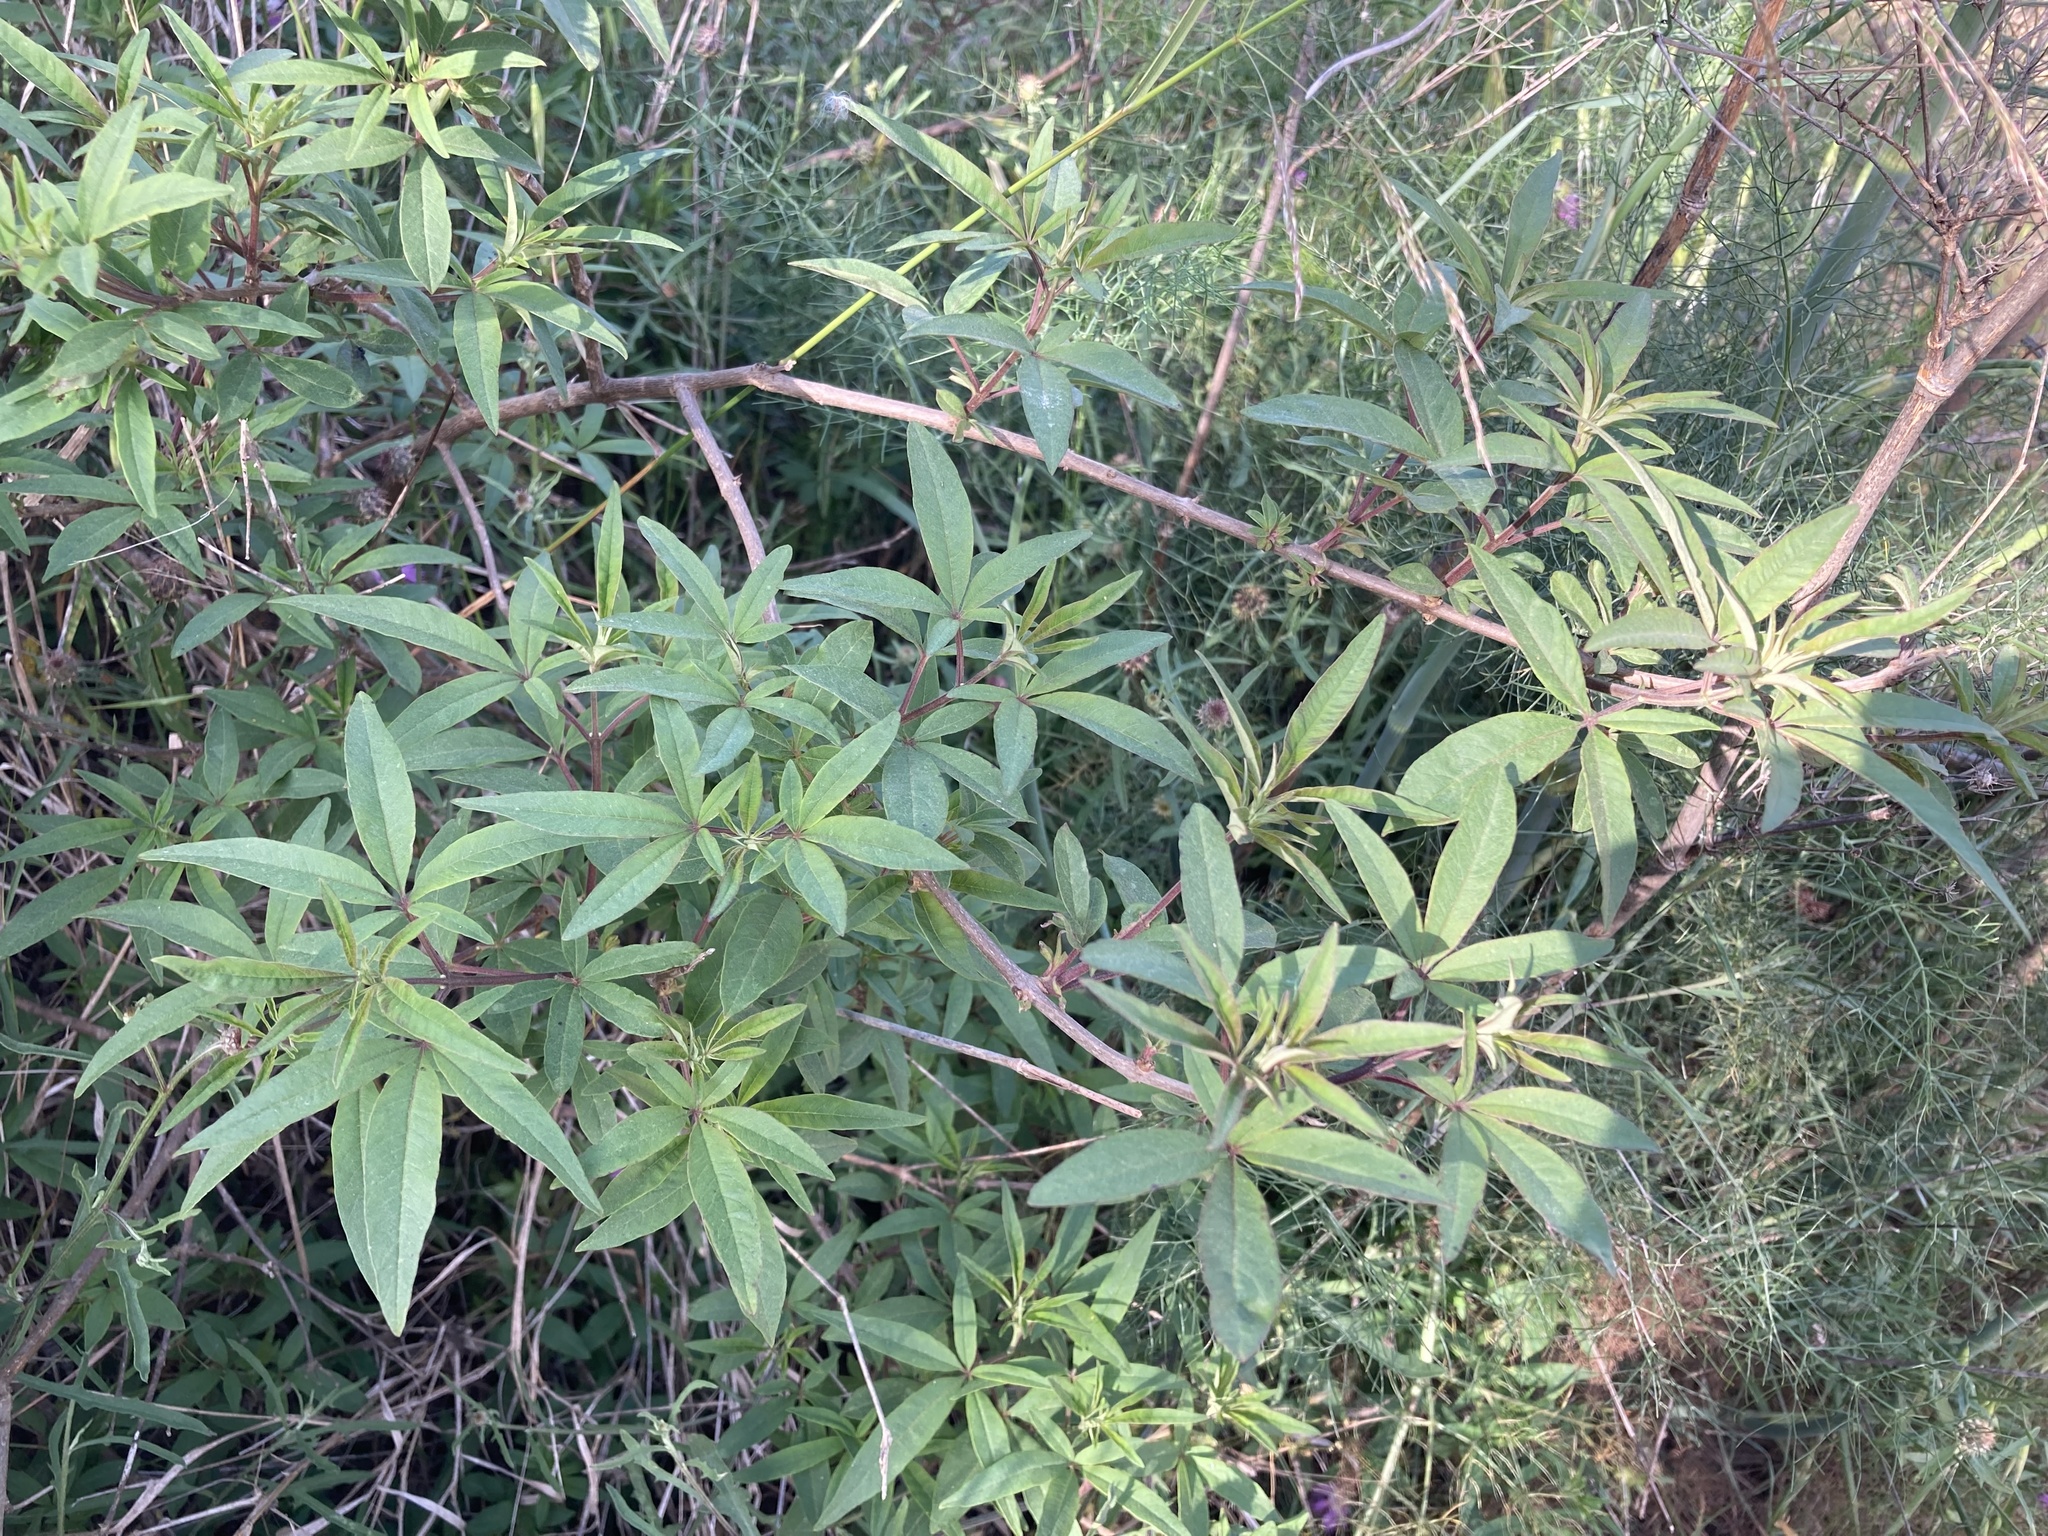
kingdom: Plantae
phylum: Tracheophyta
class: Magnoliopsida
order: Lamiales
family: Lamiaceae
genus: Vitex
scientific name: Vitex agnus-castus
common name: Chasteberry
